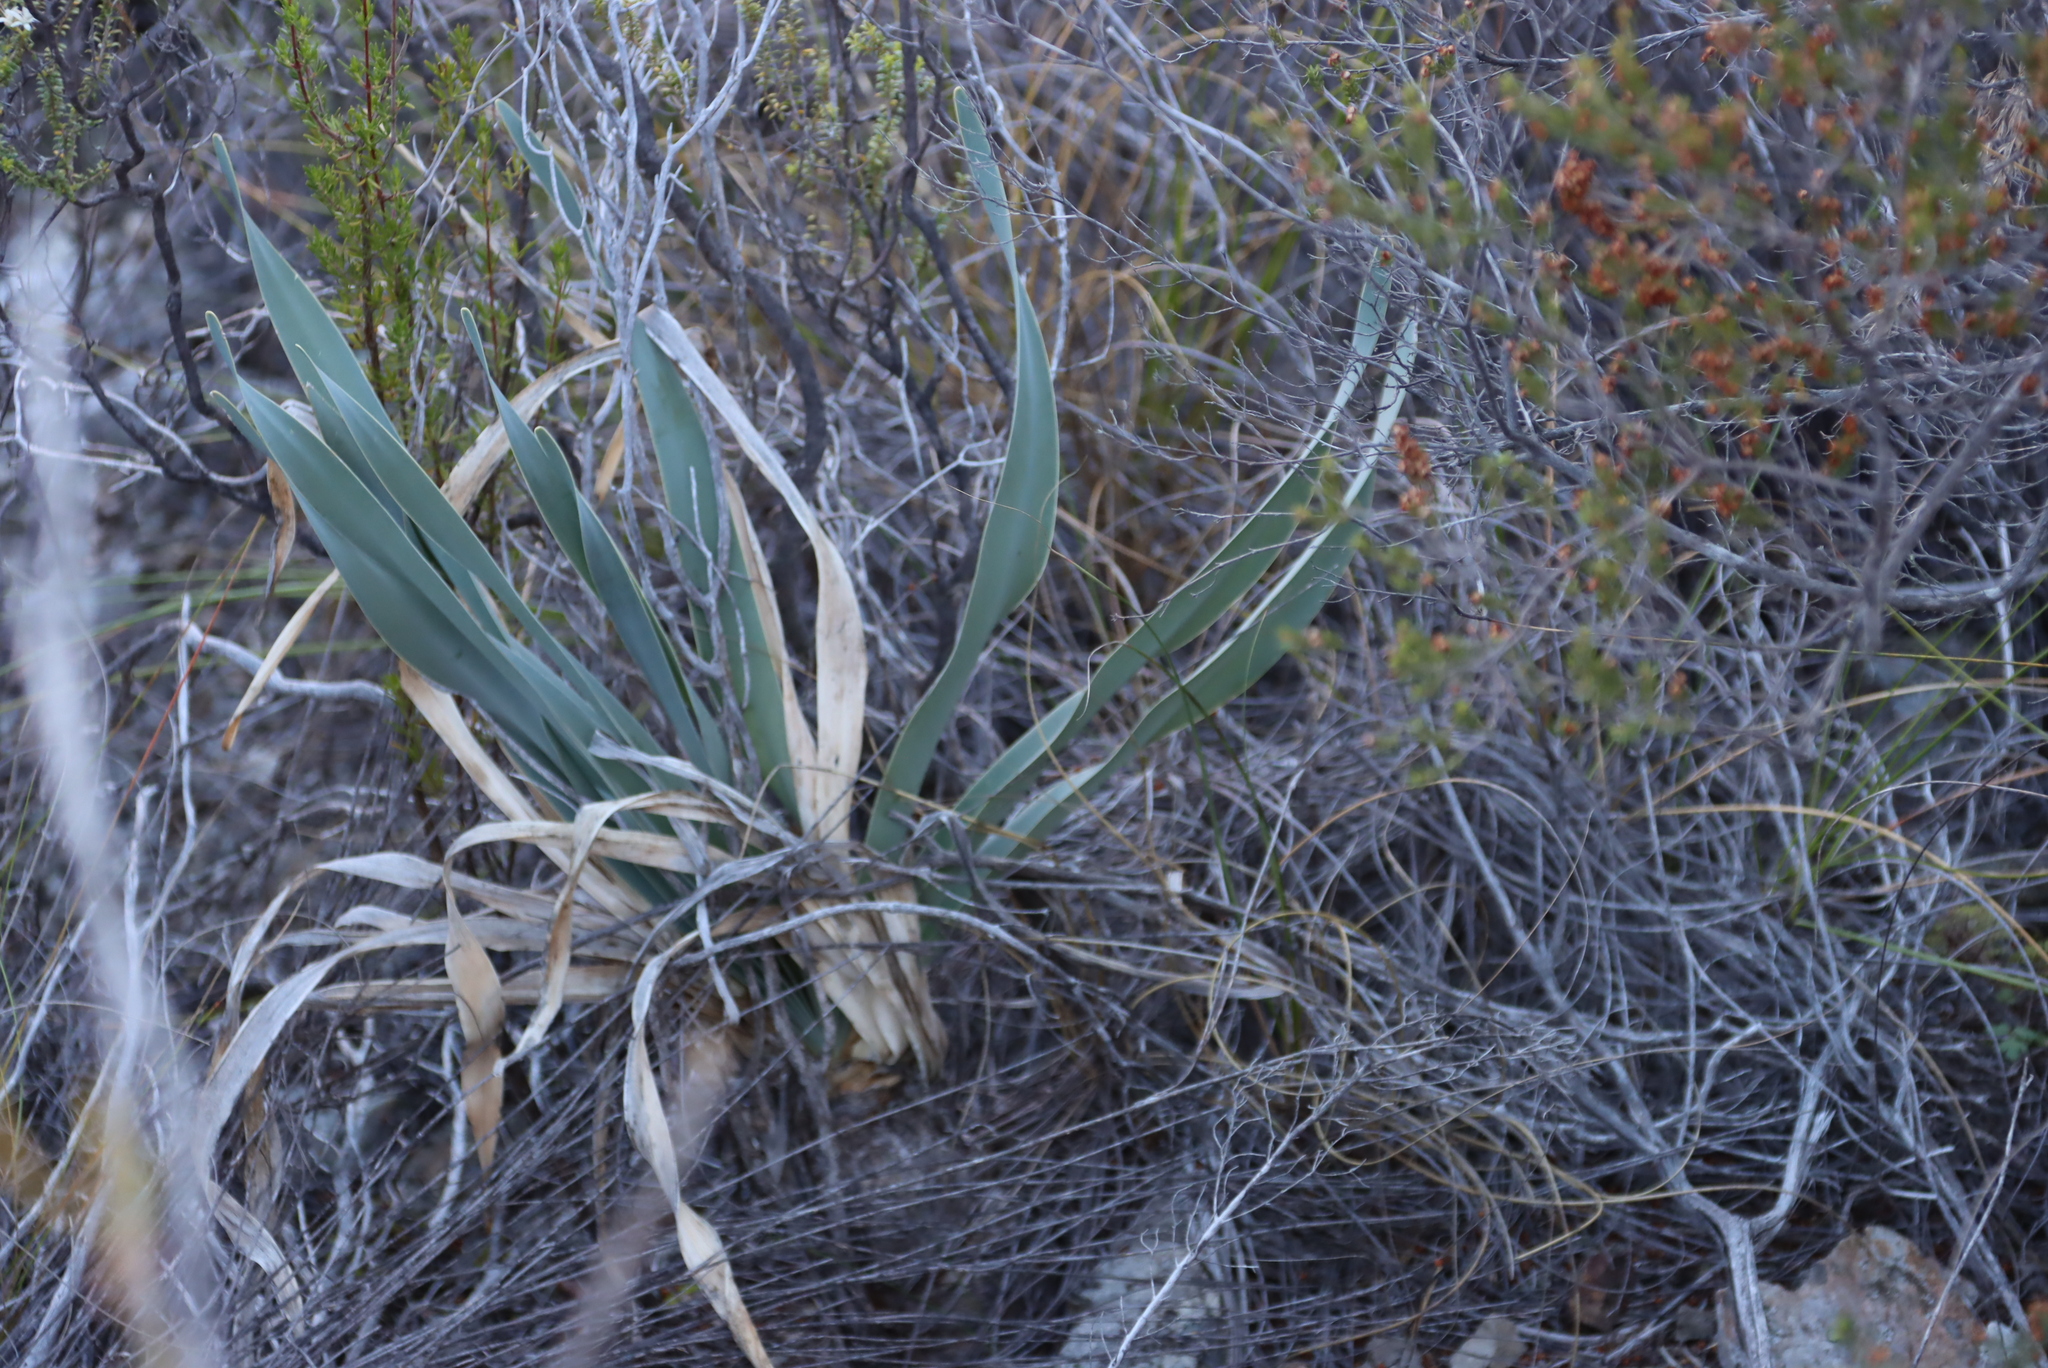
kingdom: Plantae
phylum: Tracheophyta
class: Liliopsida
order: Asparagales
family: Amaryllidaceae
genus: Boophone
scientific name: Boophone disticha
